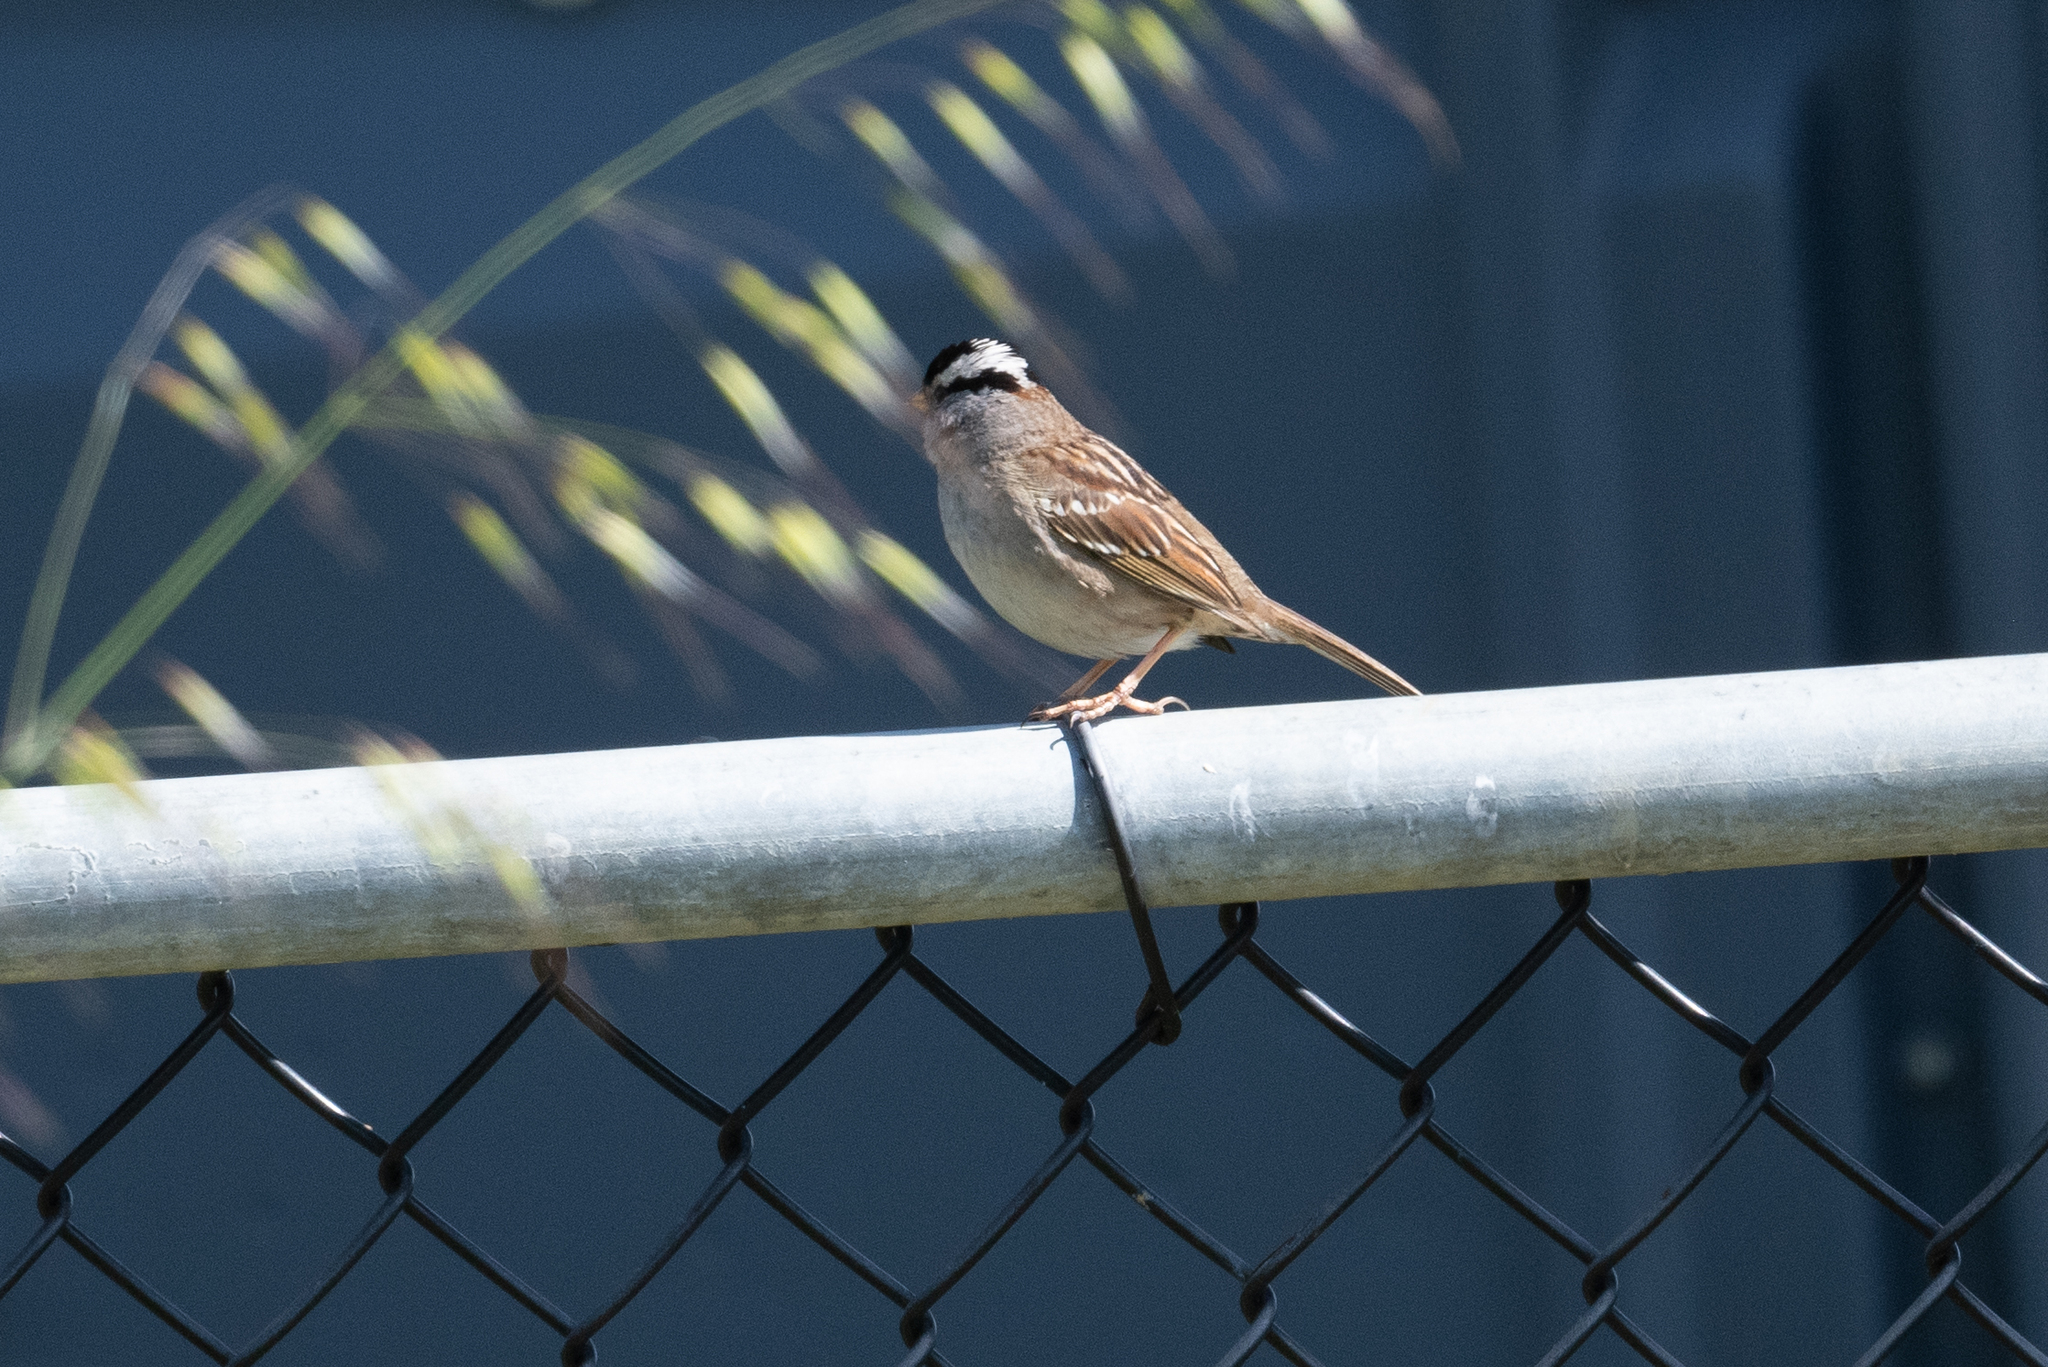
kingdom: Animalia
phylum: Chordata
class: Aves
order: Passeriformes
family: Passerellidae
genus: Zonotrichia
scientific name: Zonotrichia leucophrys
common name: White-crowned sparrow
